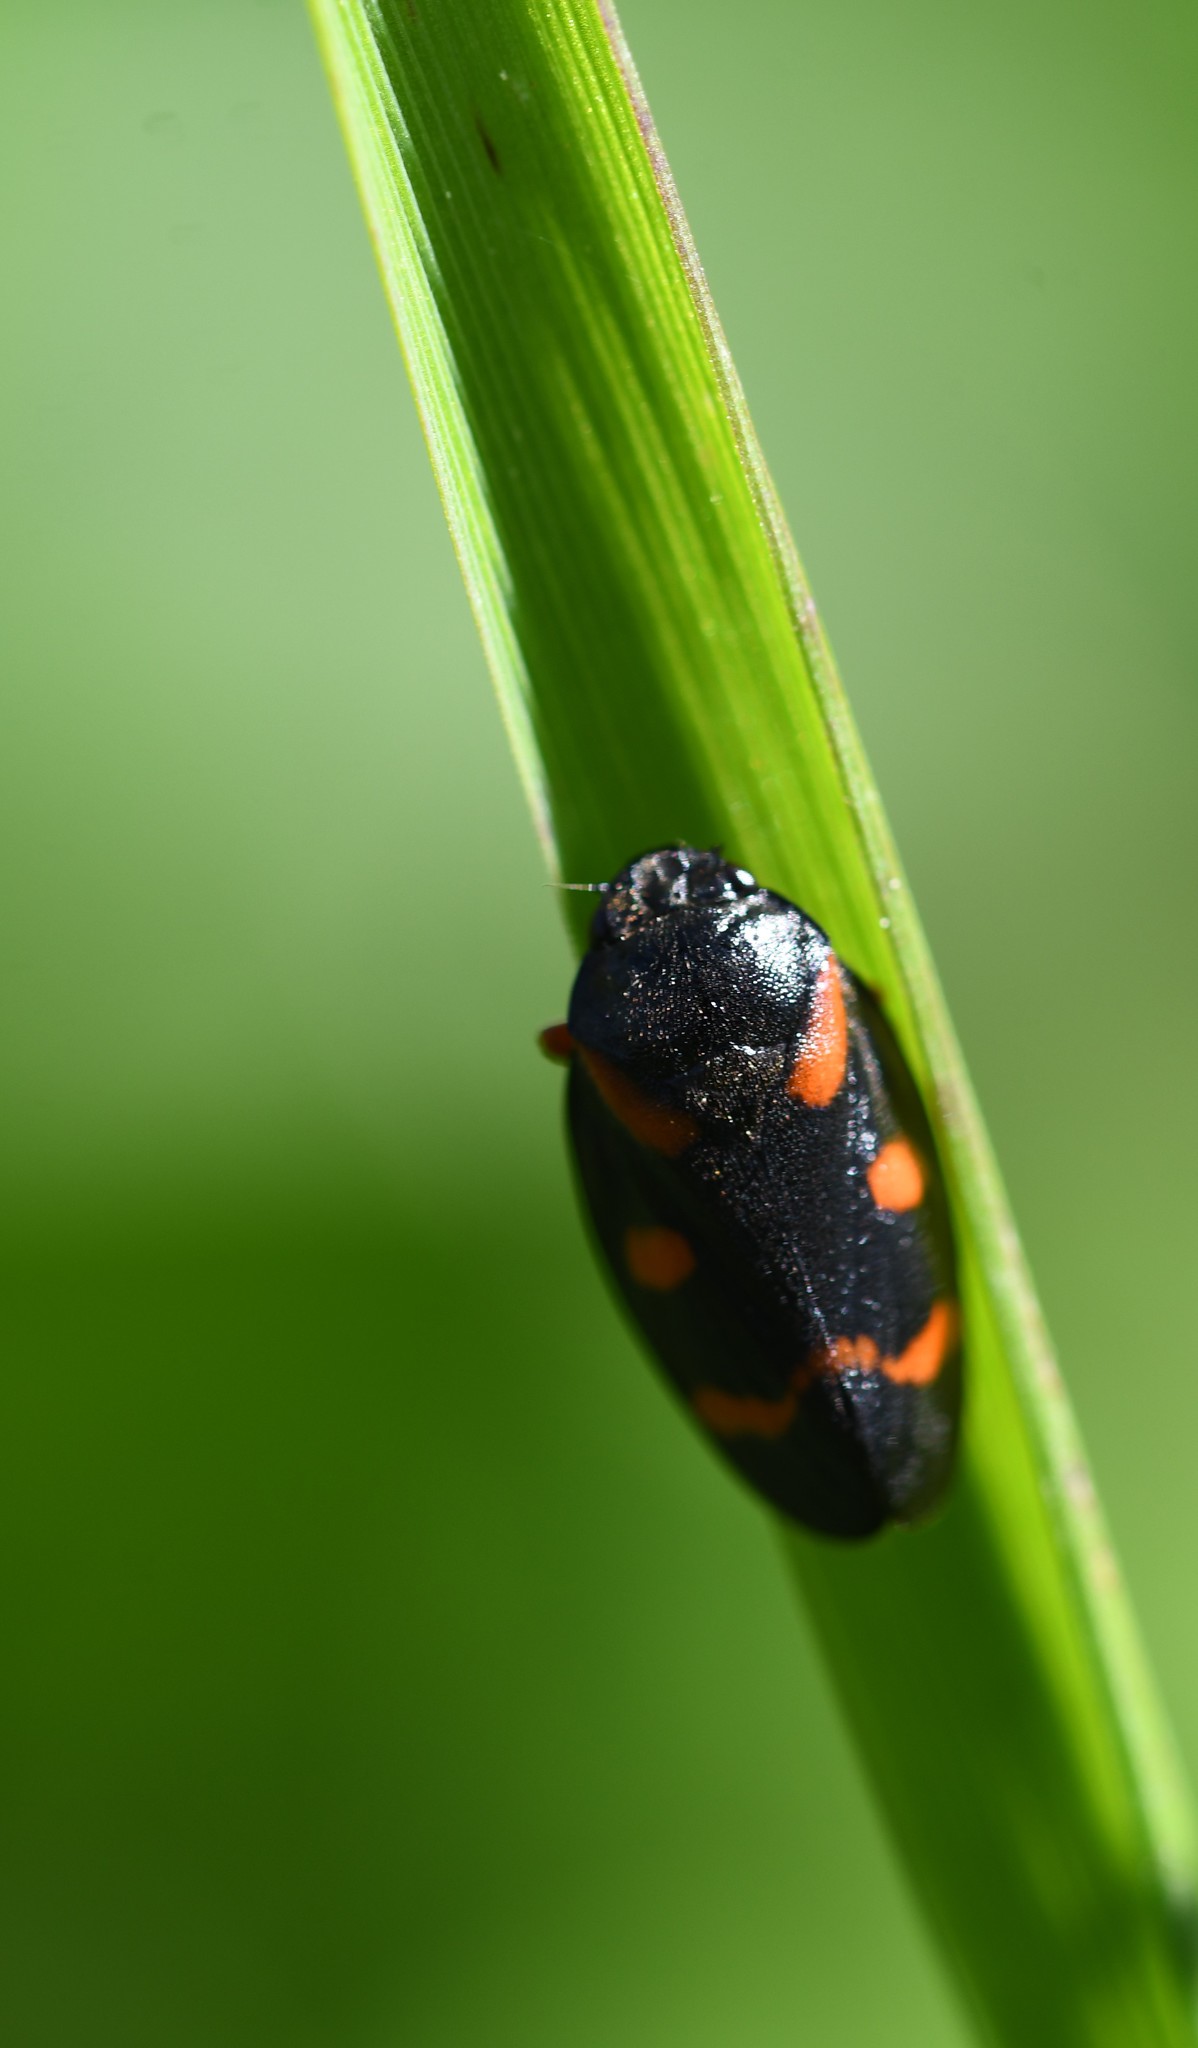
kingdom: Animalia
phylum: Arthropoda
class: Insecta
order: Hemiptera
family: Cercopidae
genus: Cercopis
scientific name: Cercopis intermedia
